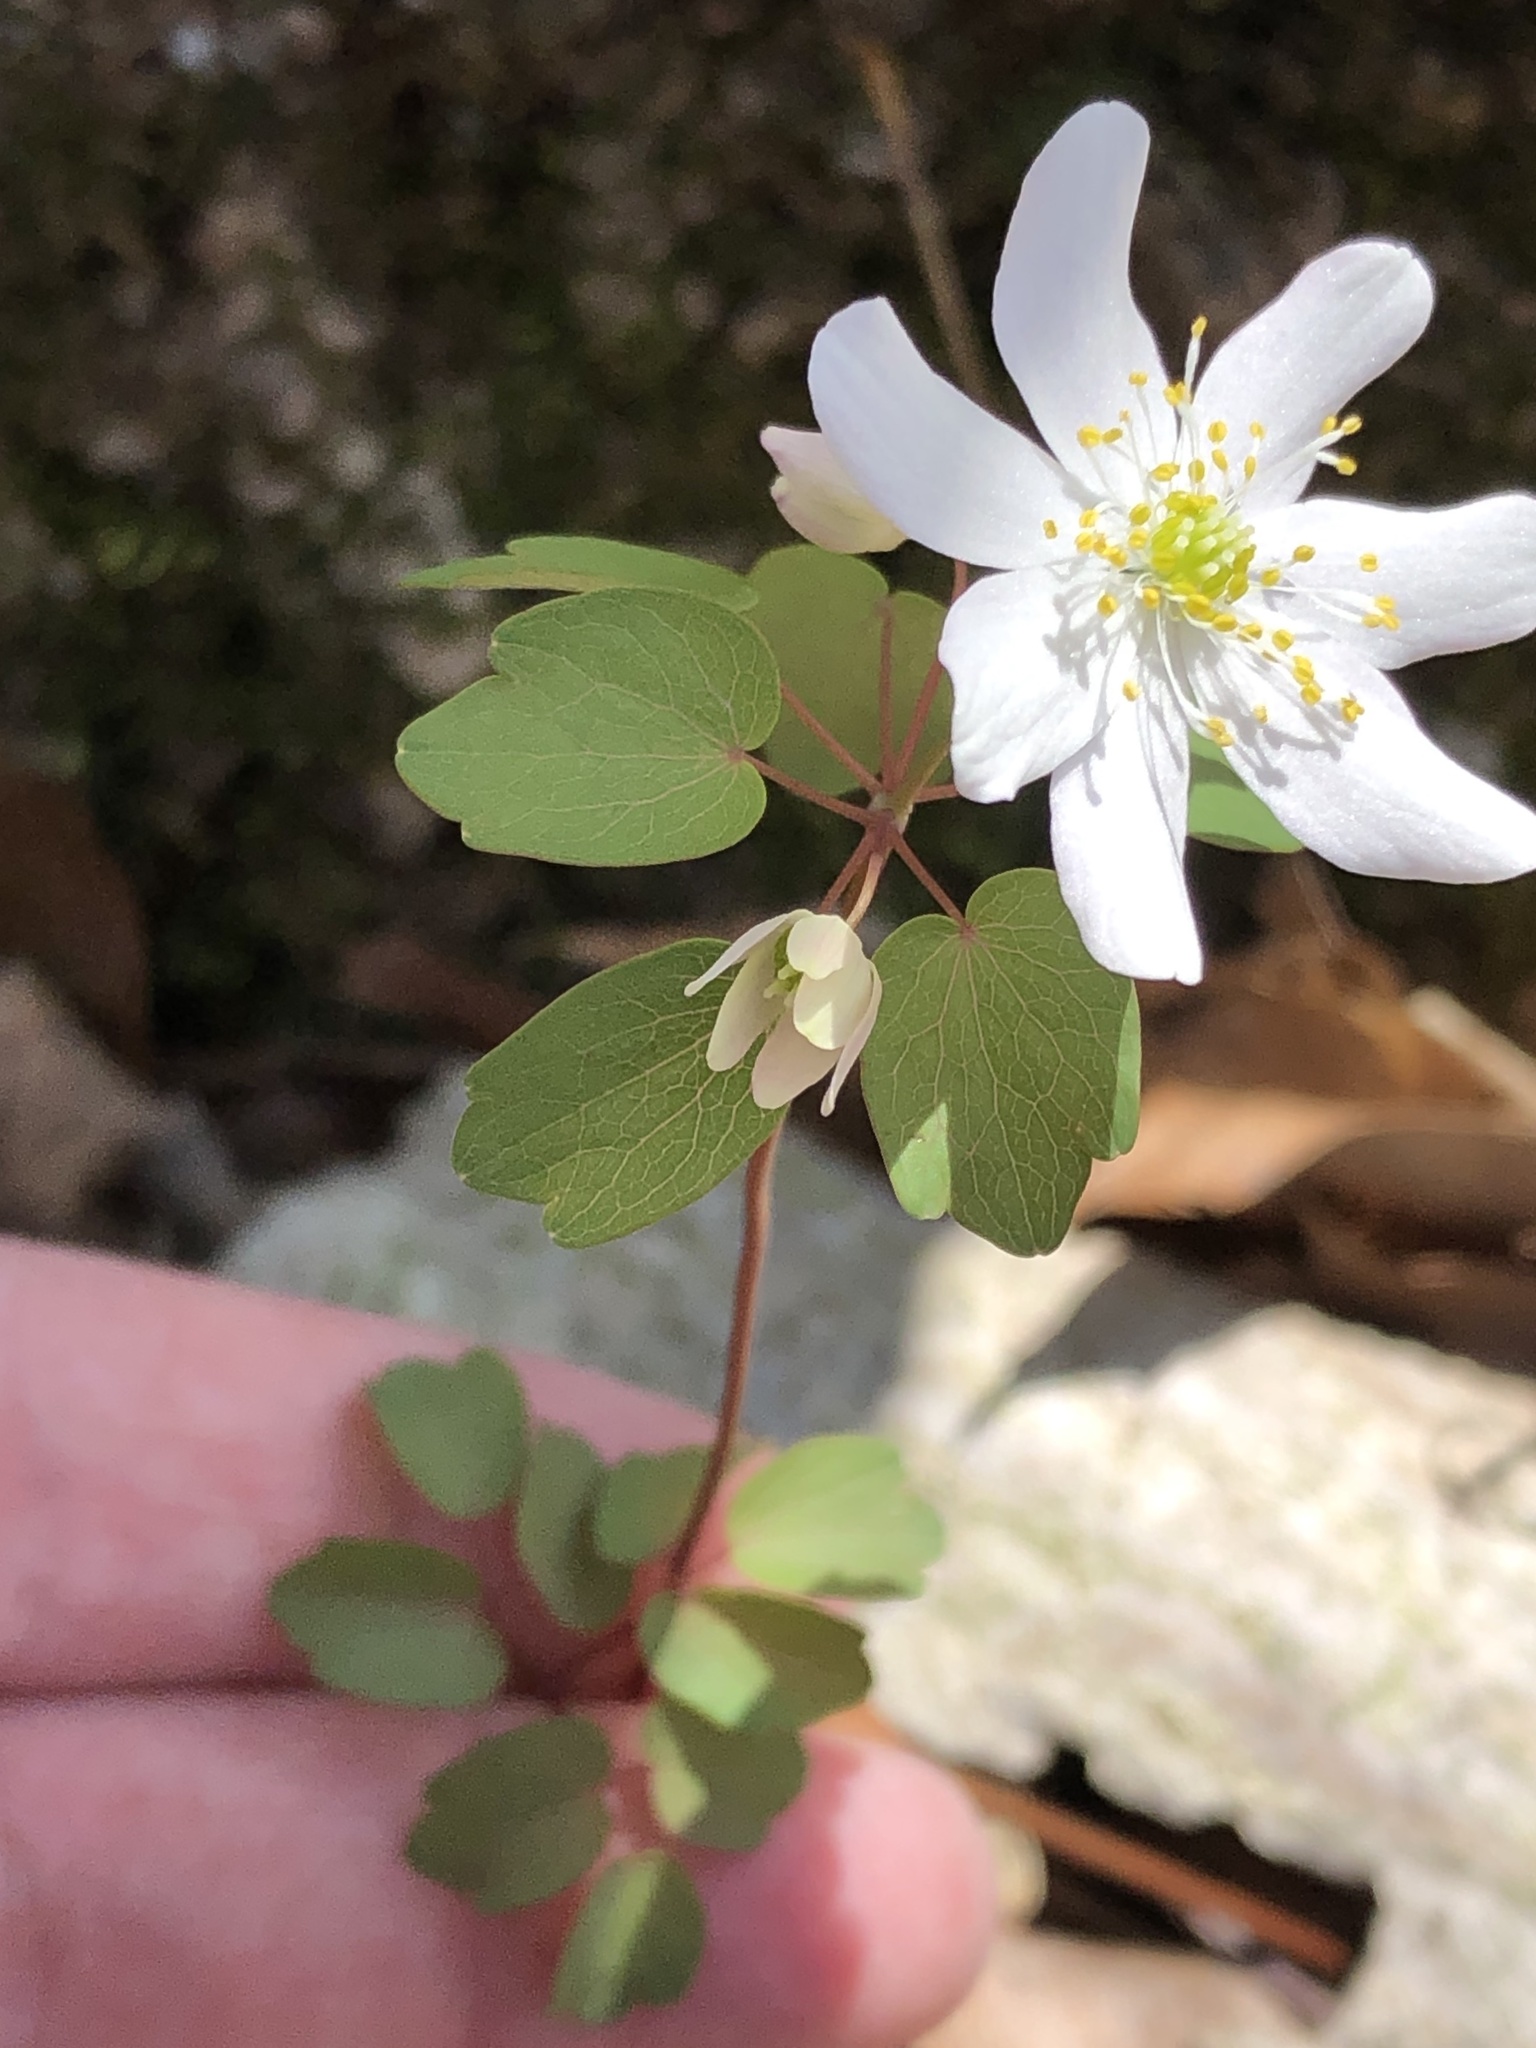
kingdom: Plantae
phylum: Tracheophyta
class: Magnoliopsida
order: Ranunculales
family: Ranunculaceae
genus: Thalictrum
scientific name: Thalictrum thalictroides
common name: Rue-anemone
